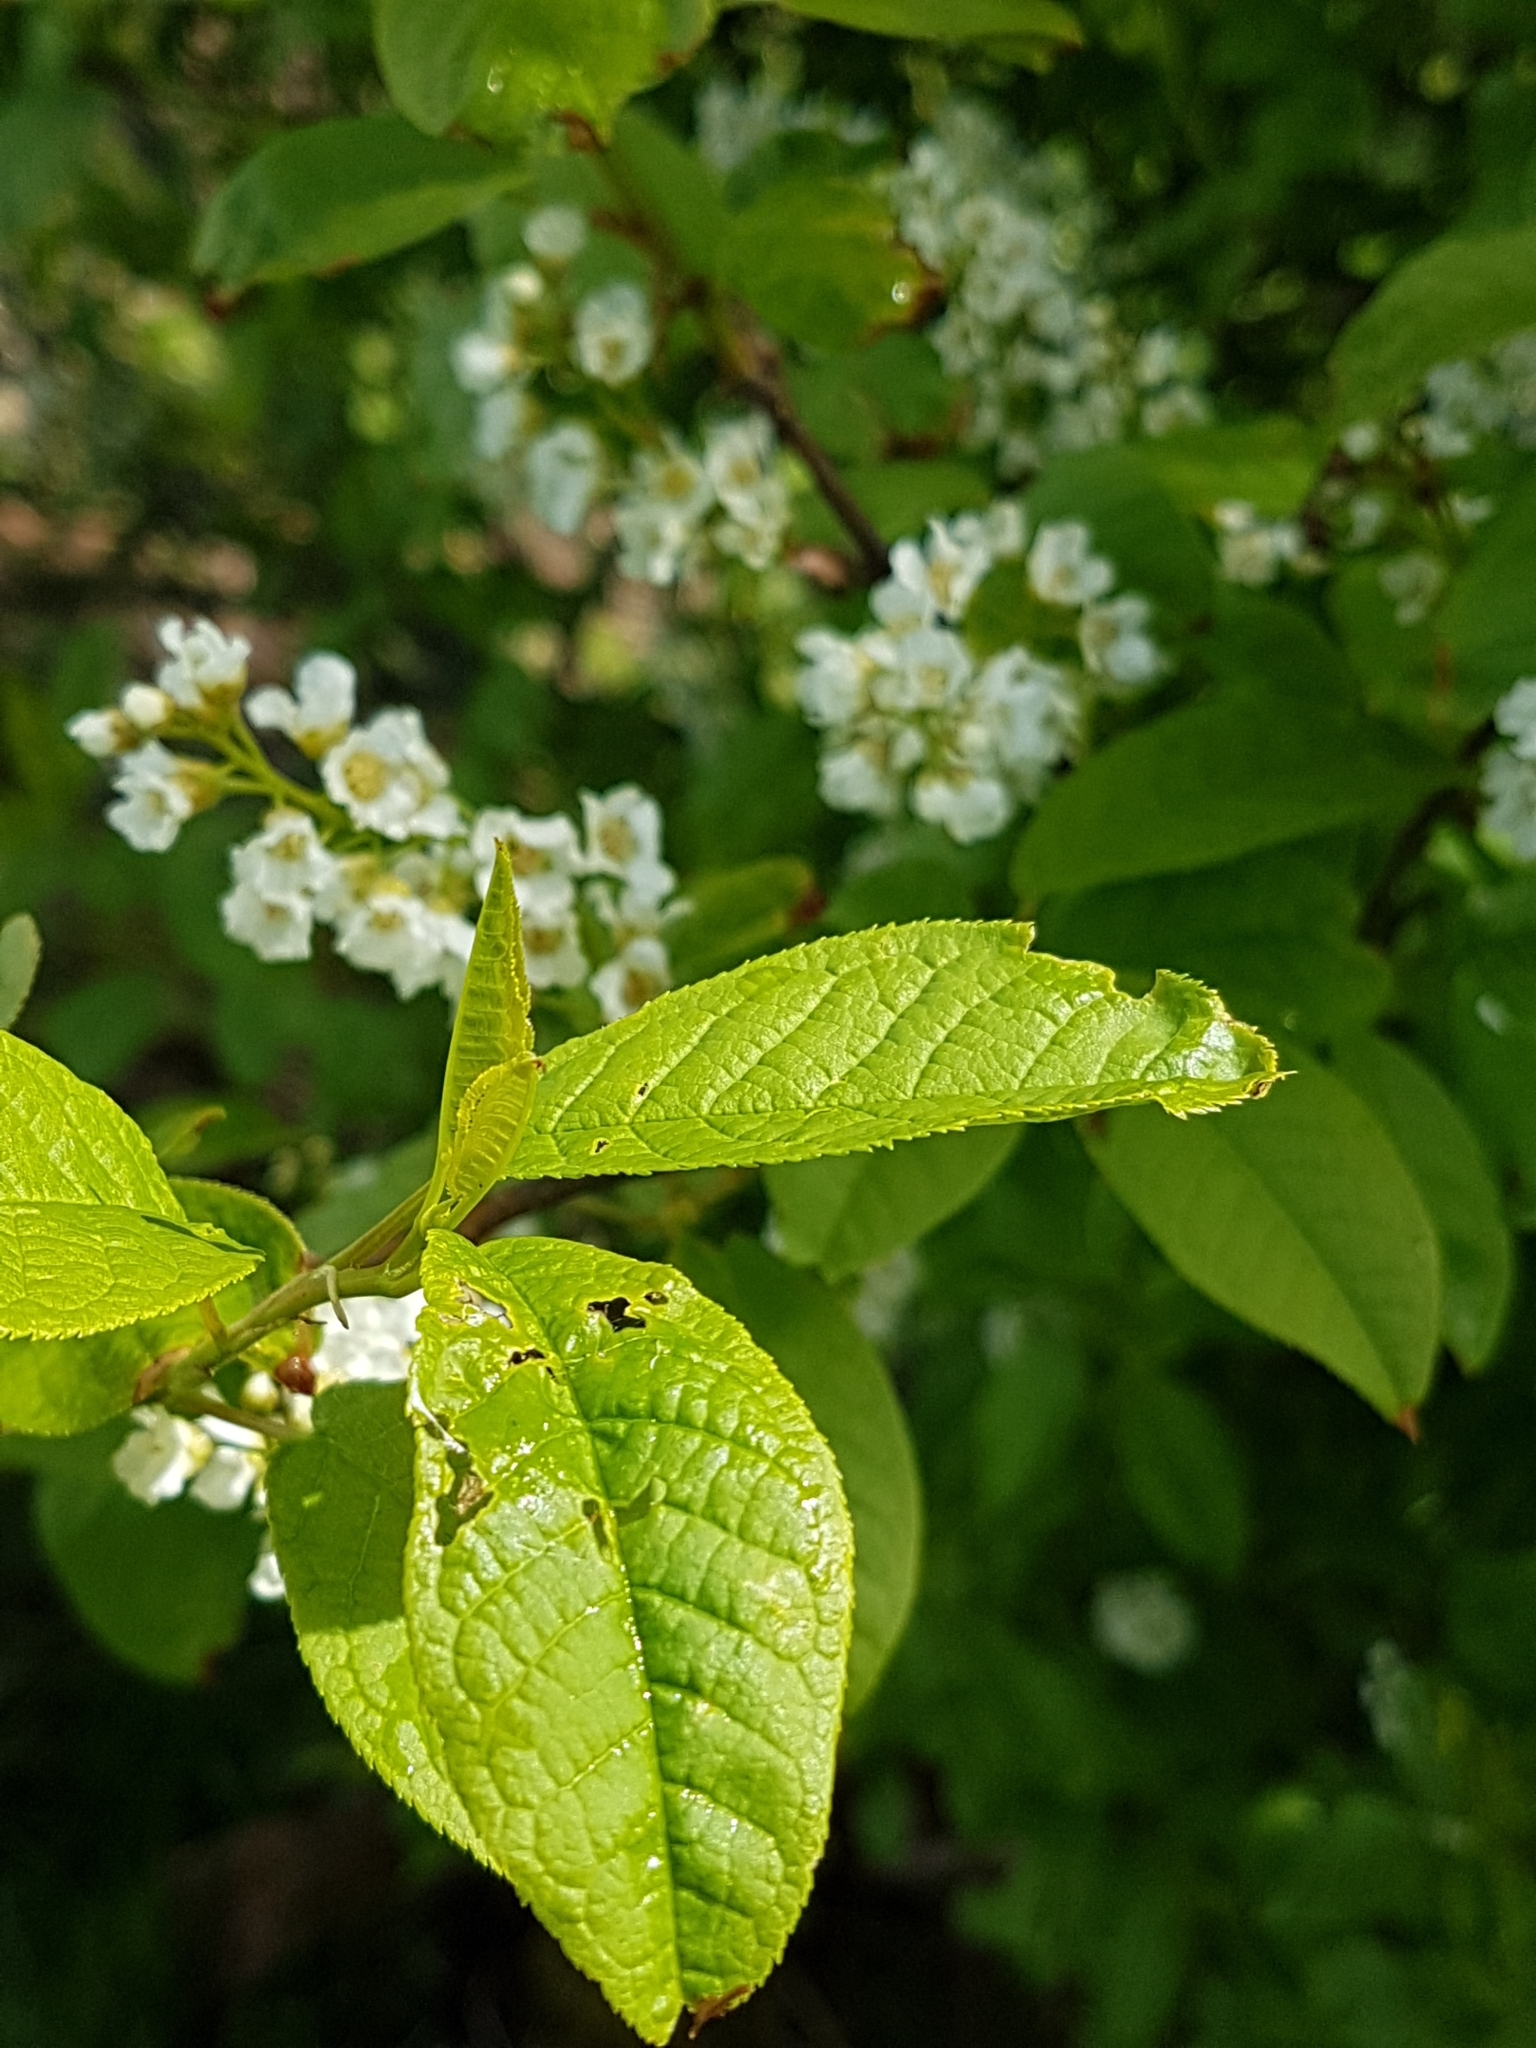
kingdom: Plantae
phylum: Tracheophyta
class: Magnoliopsida
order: Rosales
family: Rosaceae
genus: Prunus
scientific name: Prunus padus
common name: Bird cherry
